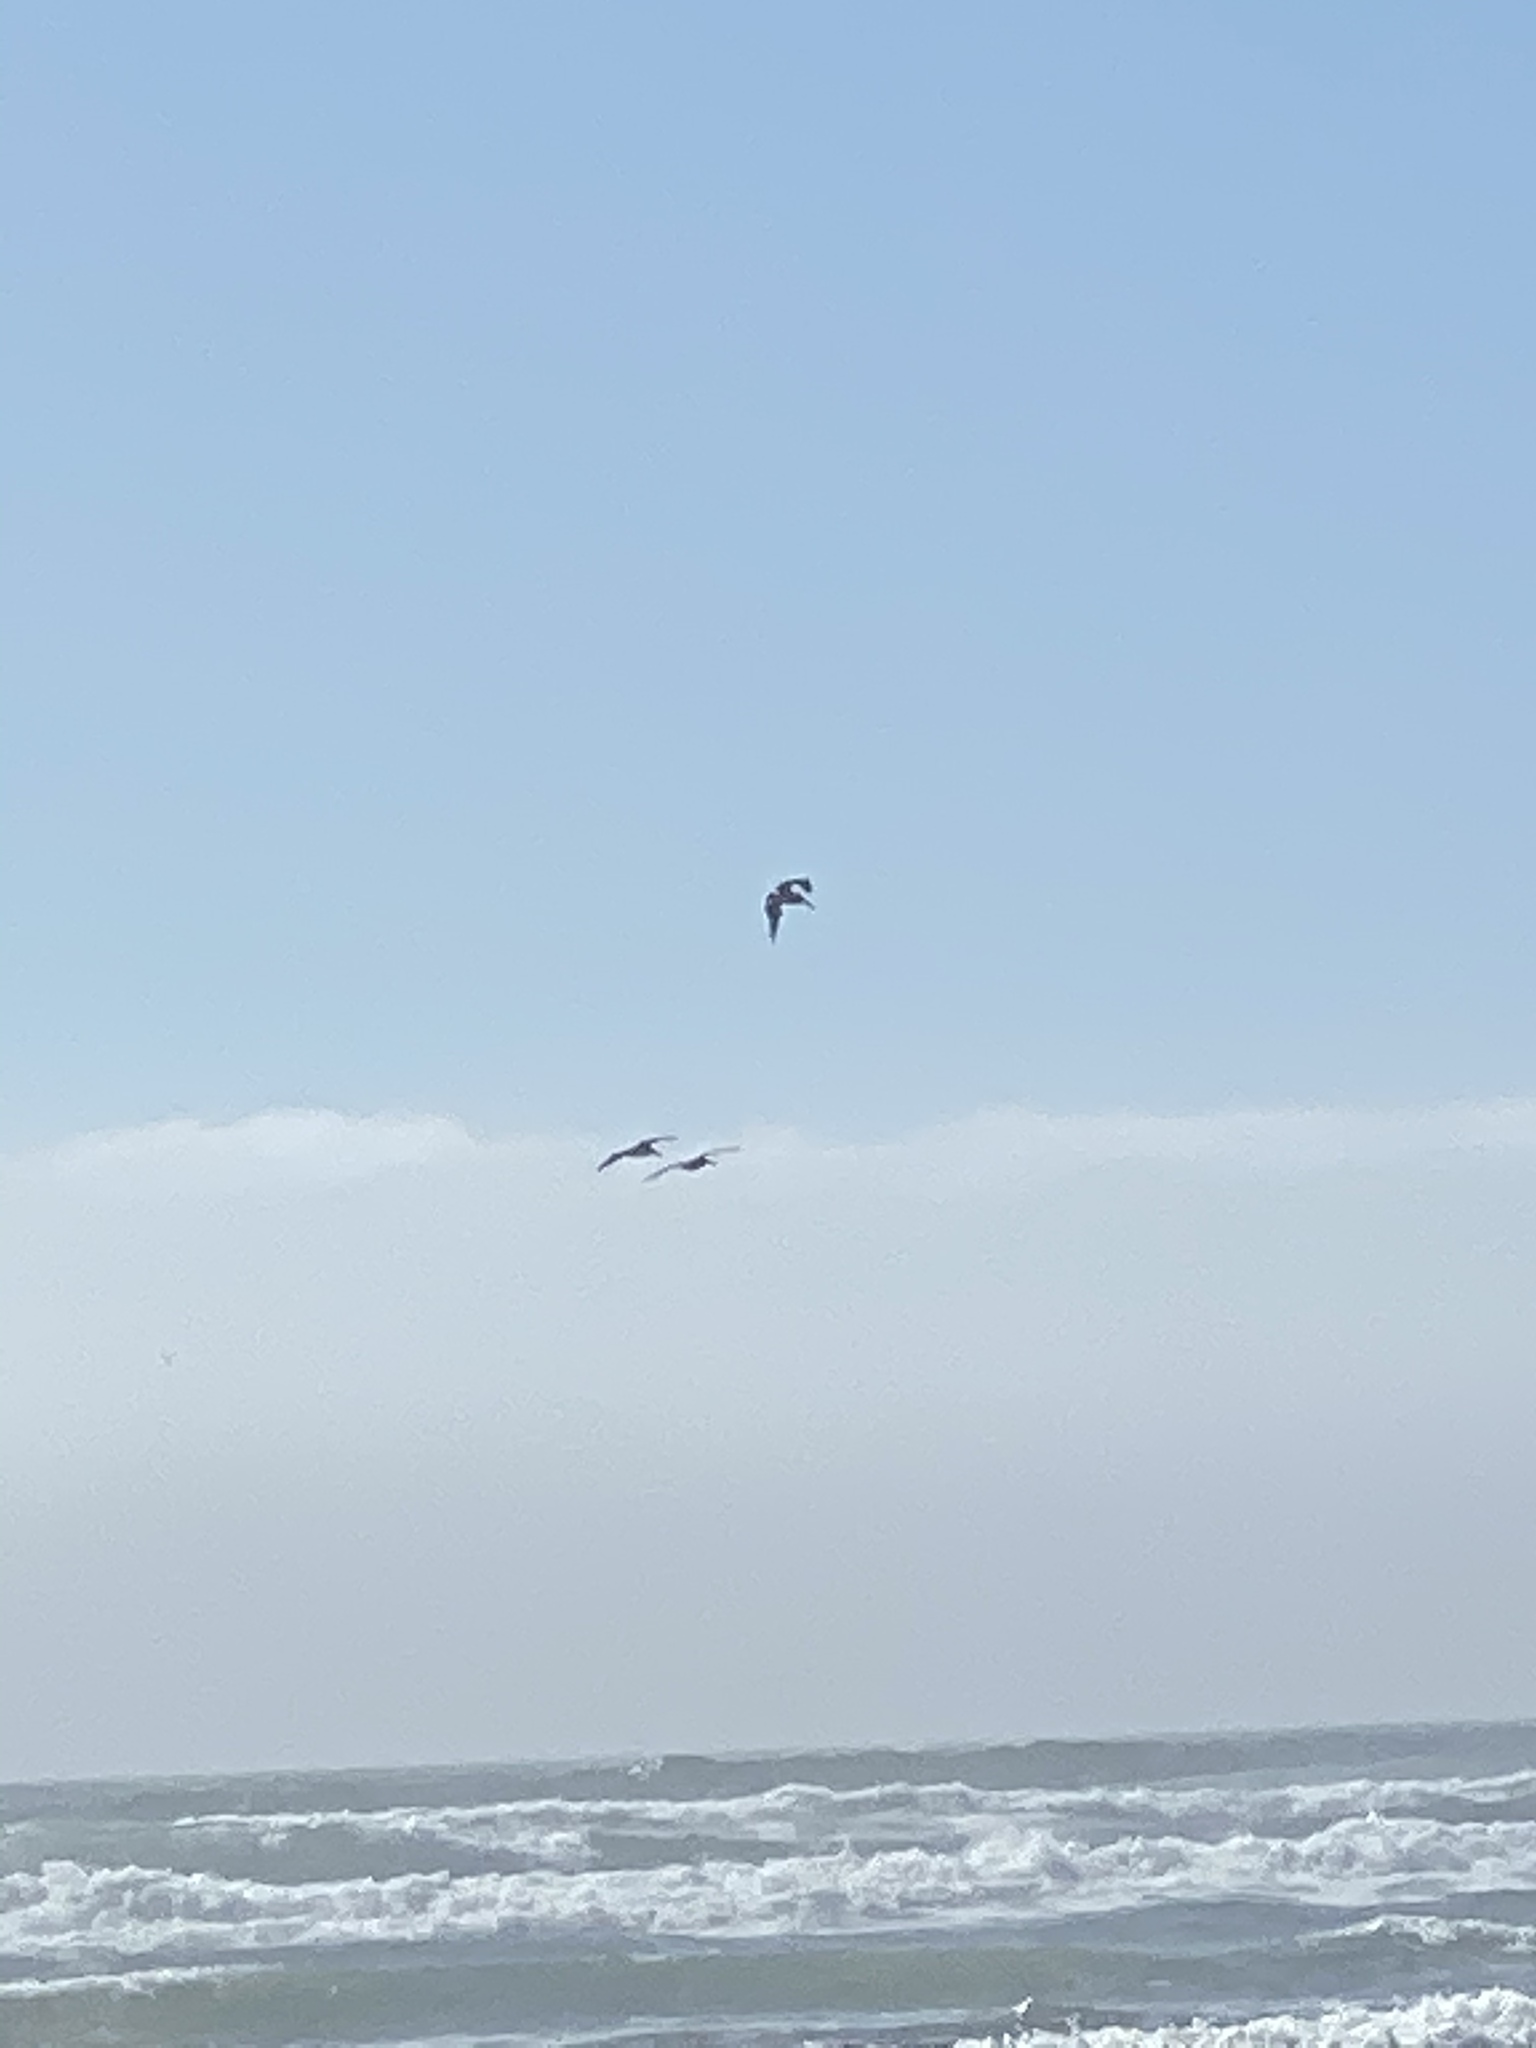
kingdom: Animalia
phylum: Chordata
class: Aves
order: Pelecaniformes
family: Pelecanidae
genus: Pelecanus
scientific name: Pelecanus occidentalis
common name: Brown pelican
